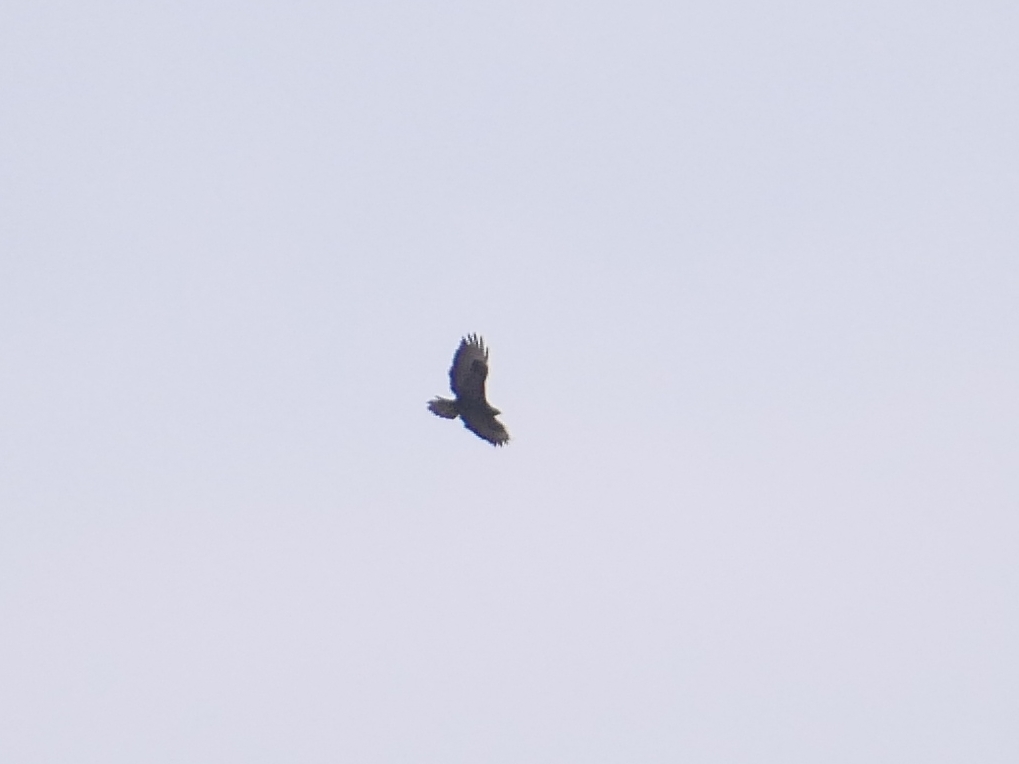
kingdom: Animalia
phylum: Chordata
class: Aves
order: Accipitriformes
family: Accipitridae
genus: Buteo
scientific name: Buteo buteo
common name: Common buzzard
